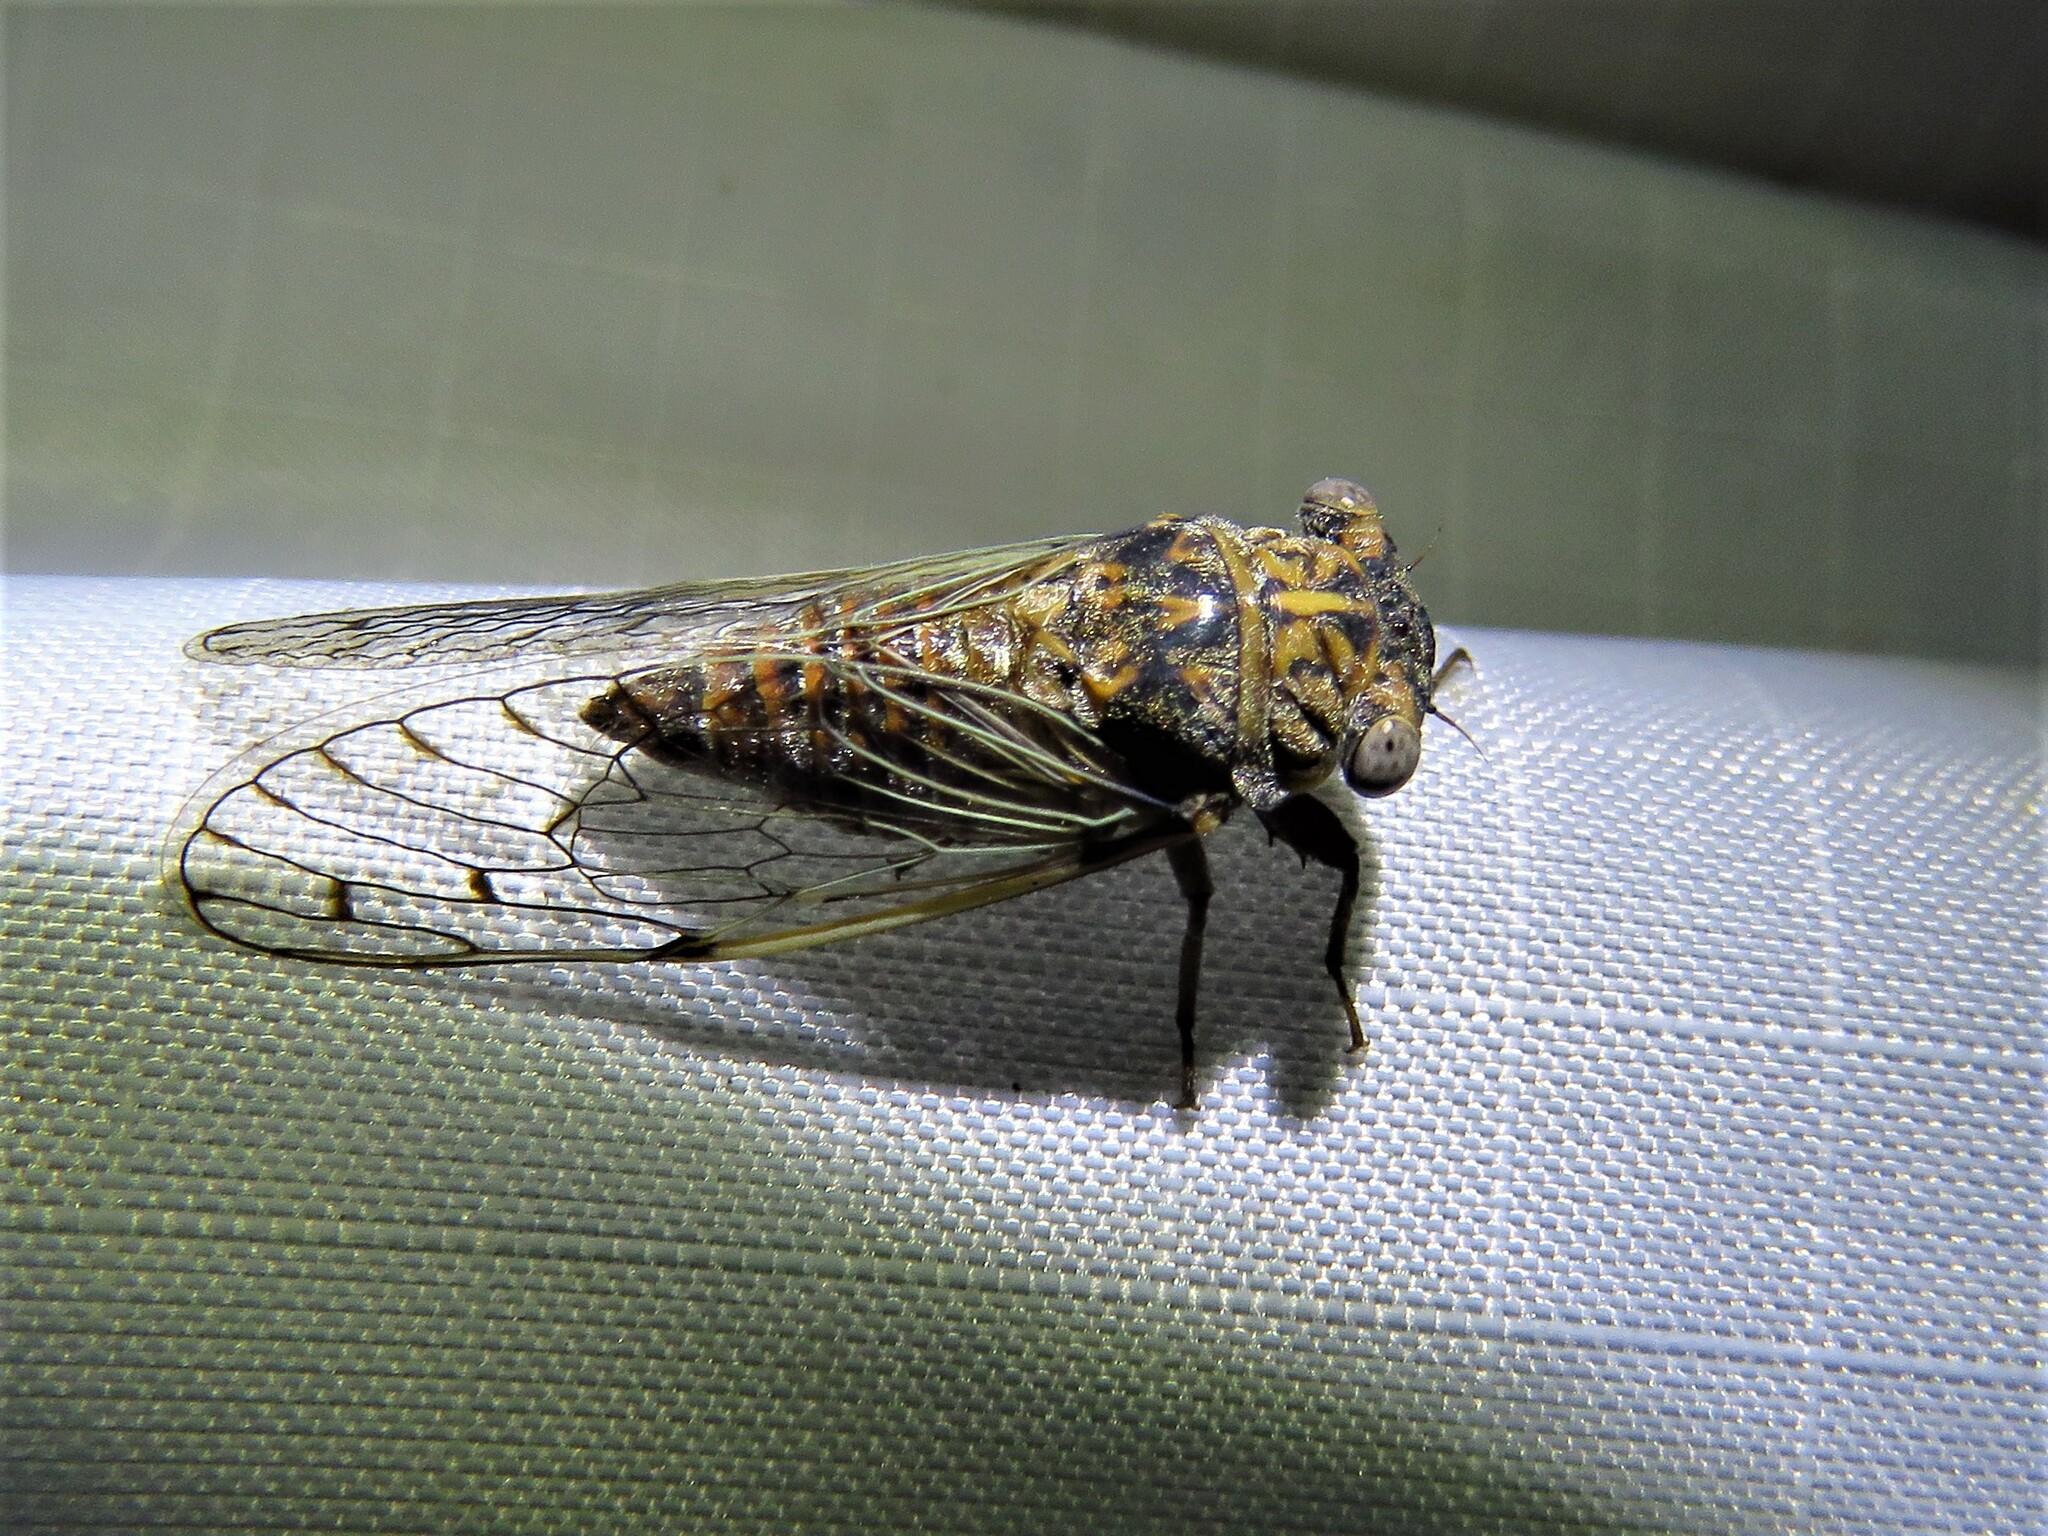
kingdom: Animalia
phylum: Arthropoda
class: Insecta
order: Hemiptera
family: Cicadidae
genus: Pacarina
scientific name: Pacarina puella
